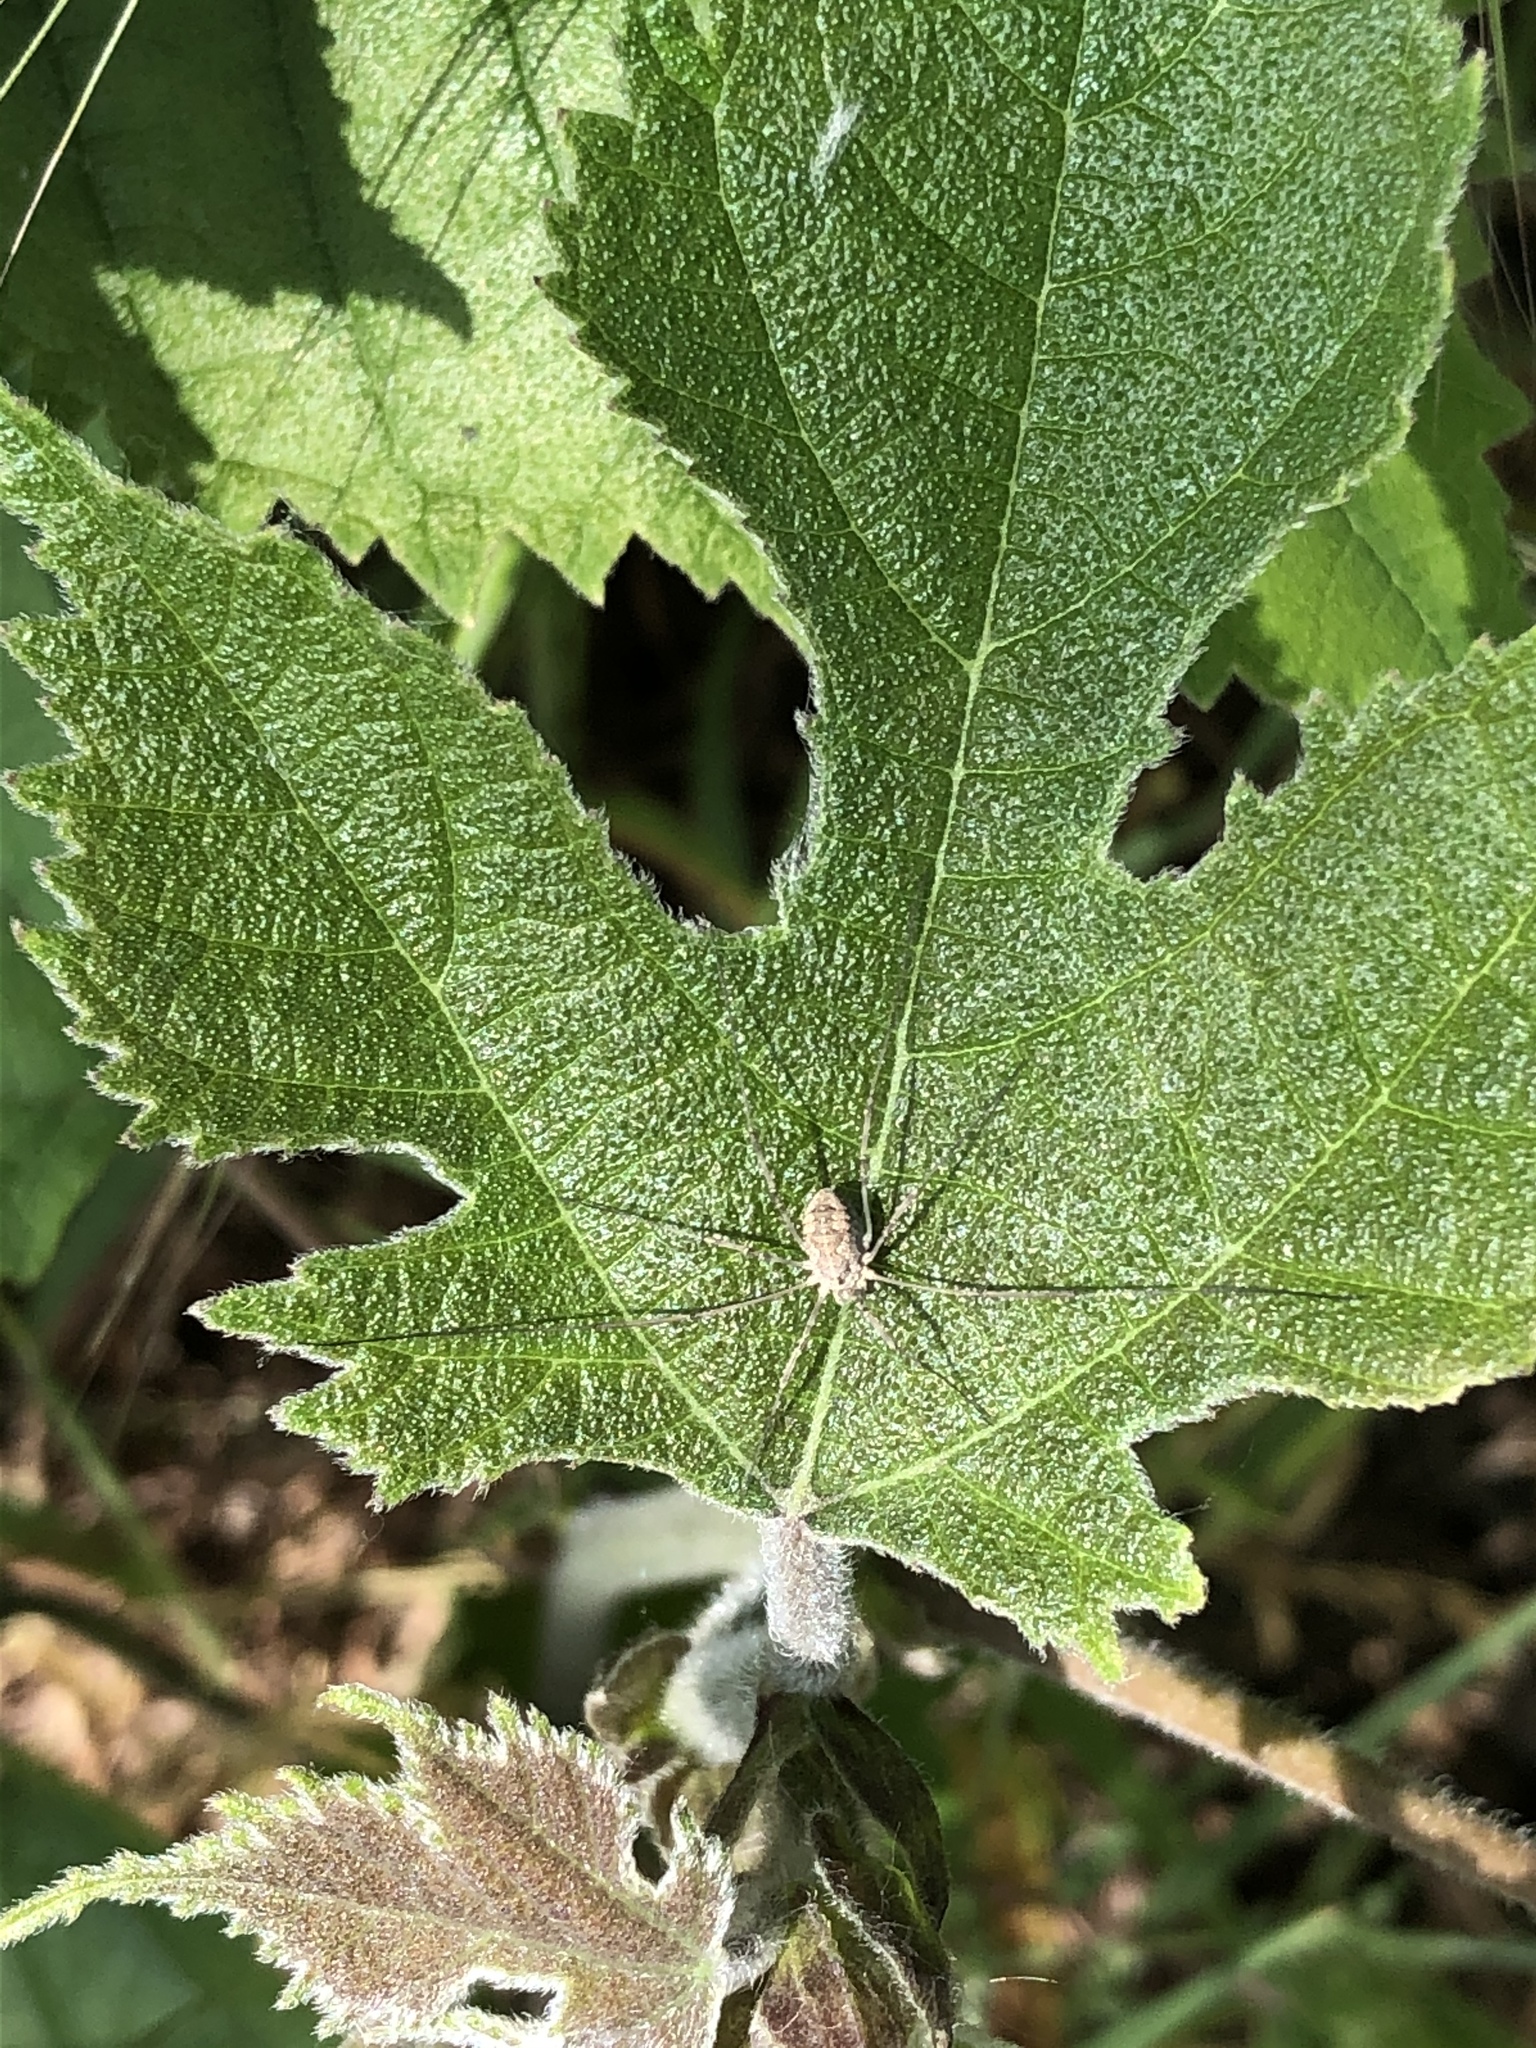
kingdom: Animalia
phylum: Arthropoda
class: Arachnida
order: Opiliones
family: Phalangiidae
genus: Phalangium
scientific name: Phalangium opilio
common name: Daddy longleg
